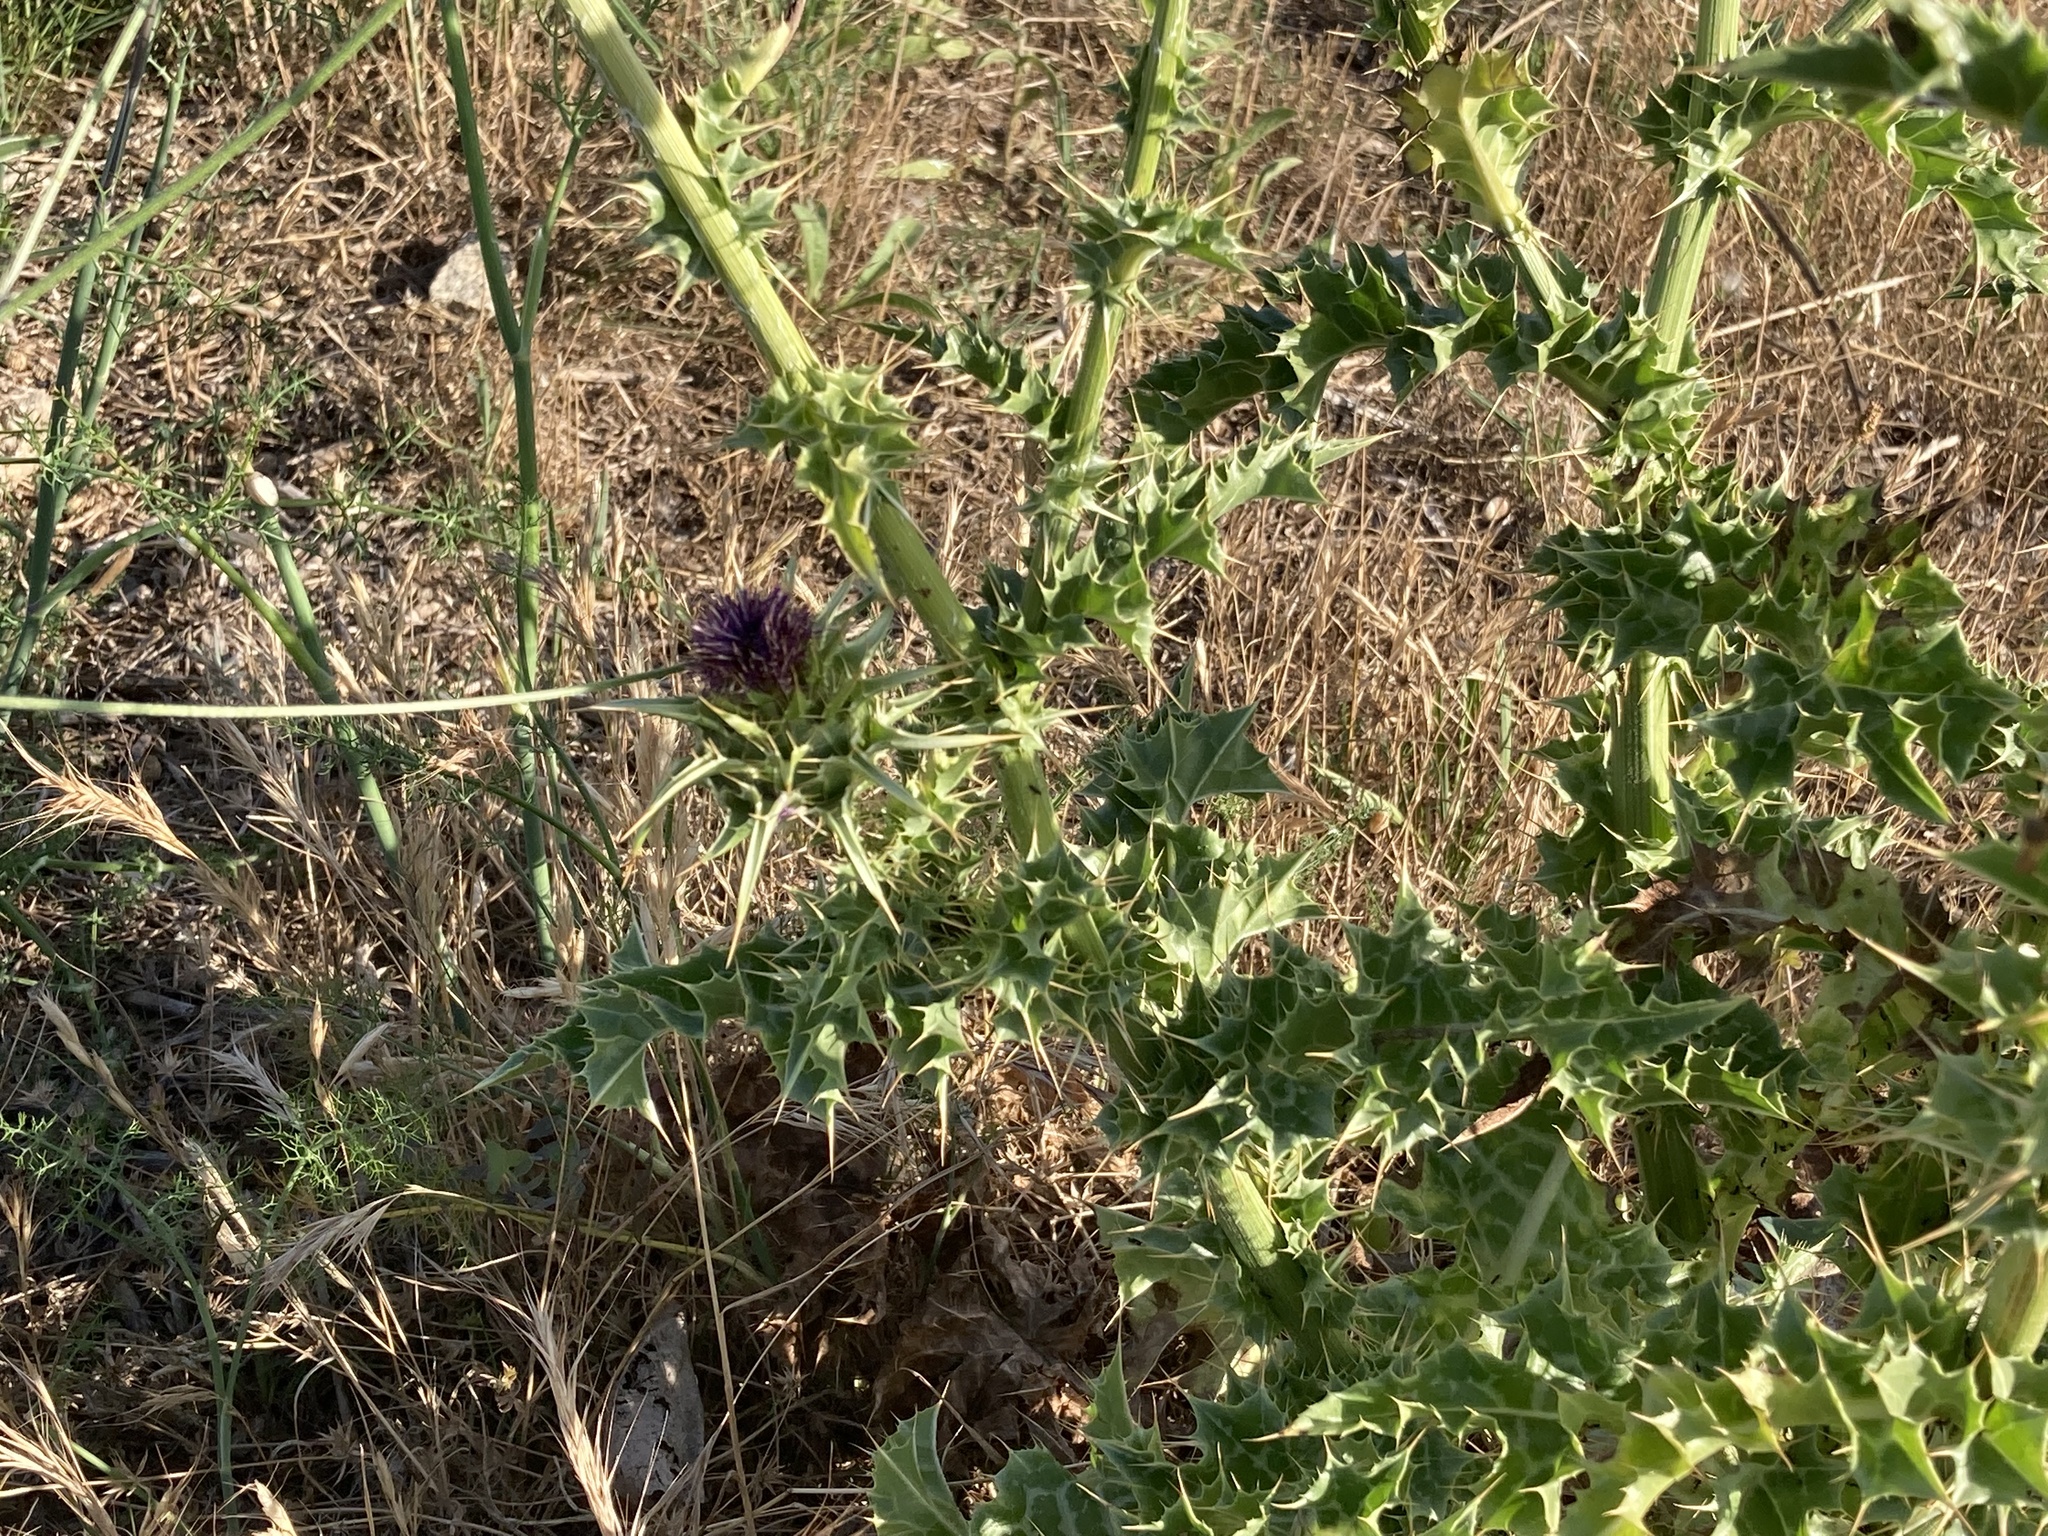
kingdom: Plantae
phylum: Tracheophyta
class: Magnoliopsida
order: Asterales
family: Asteraceae
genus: Silybum
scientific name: Silybum marianum
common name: Milk thistle
